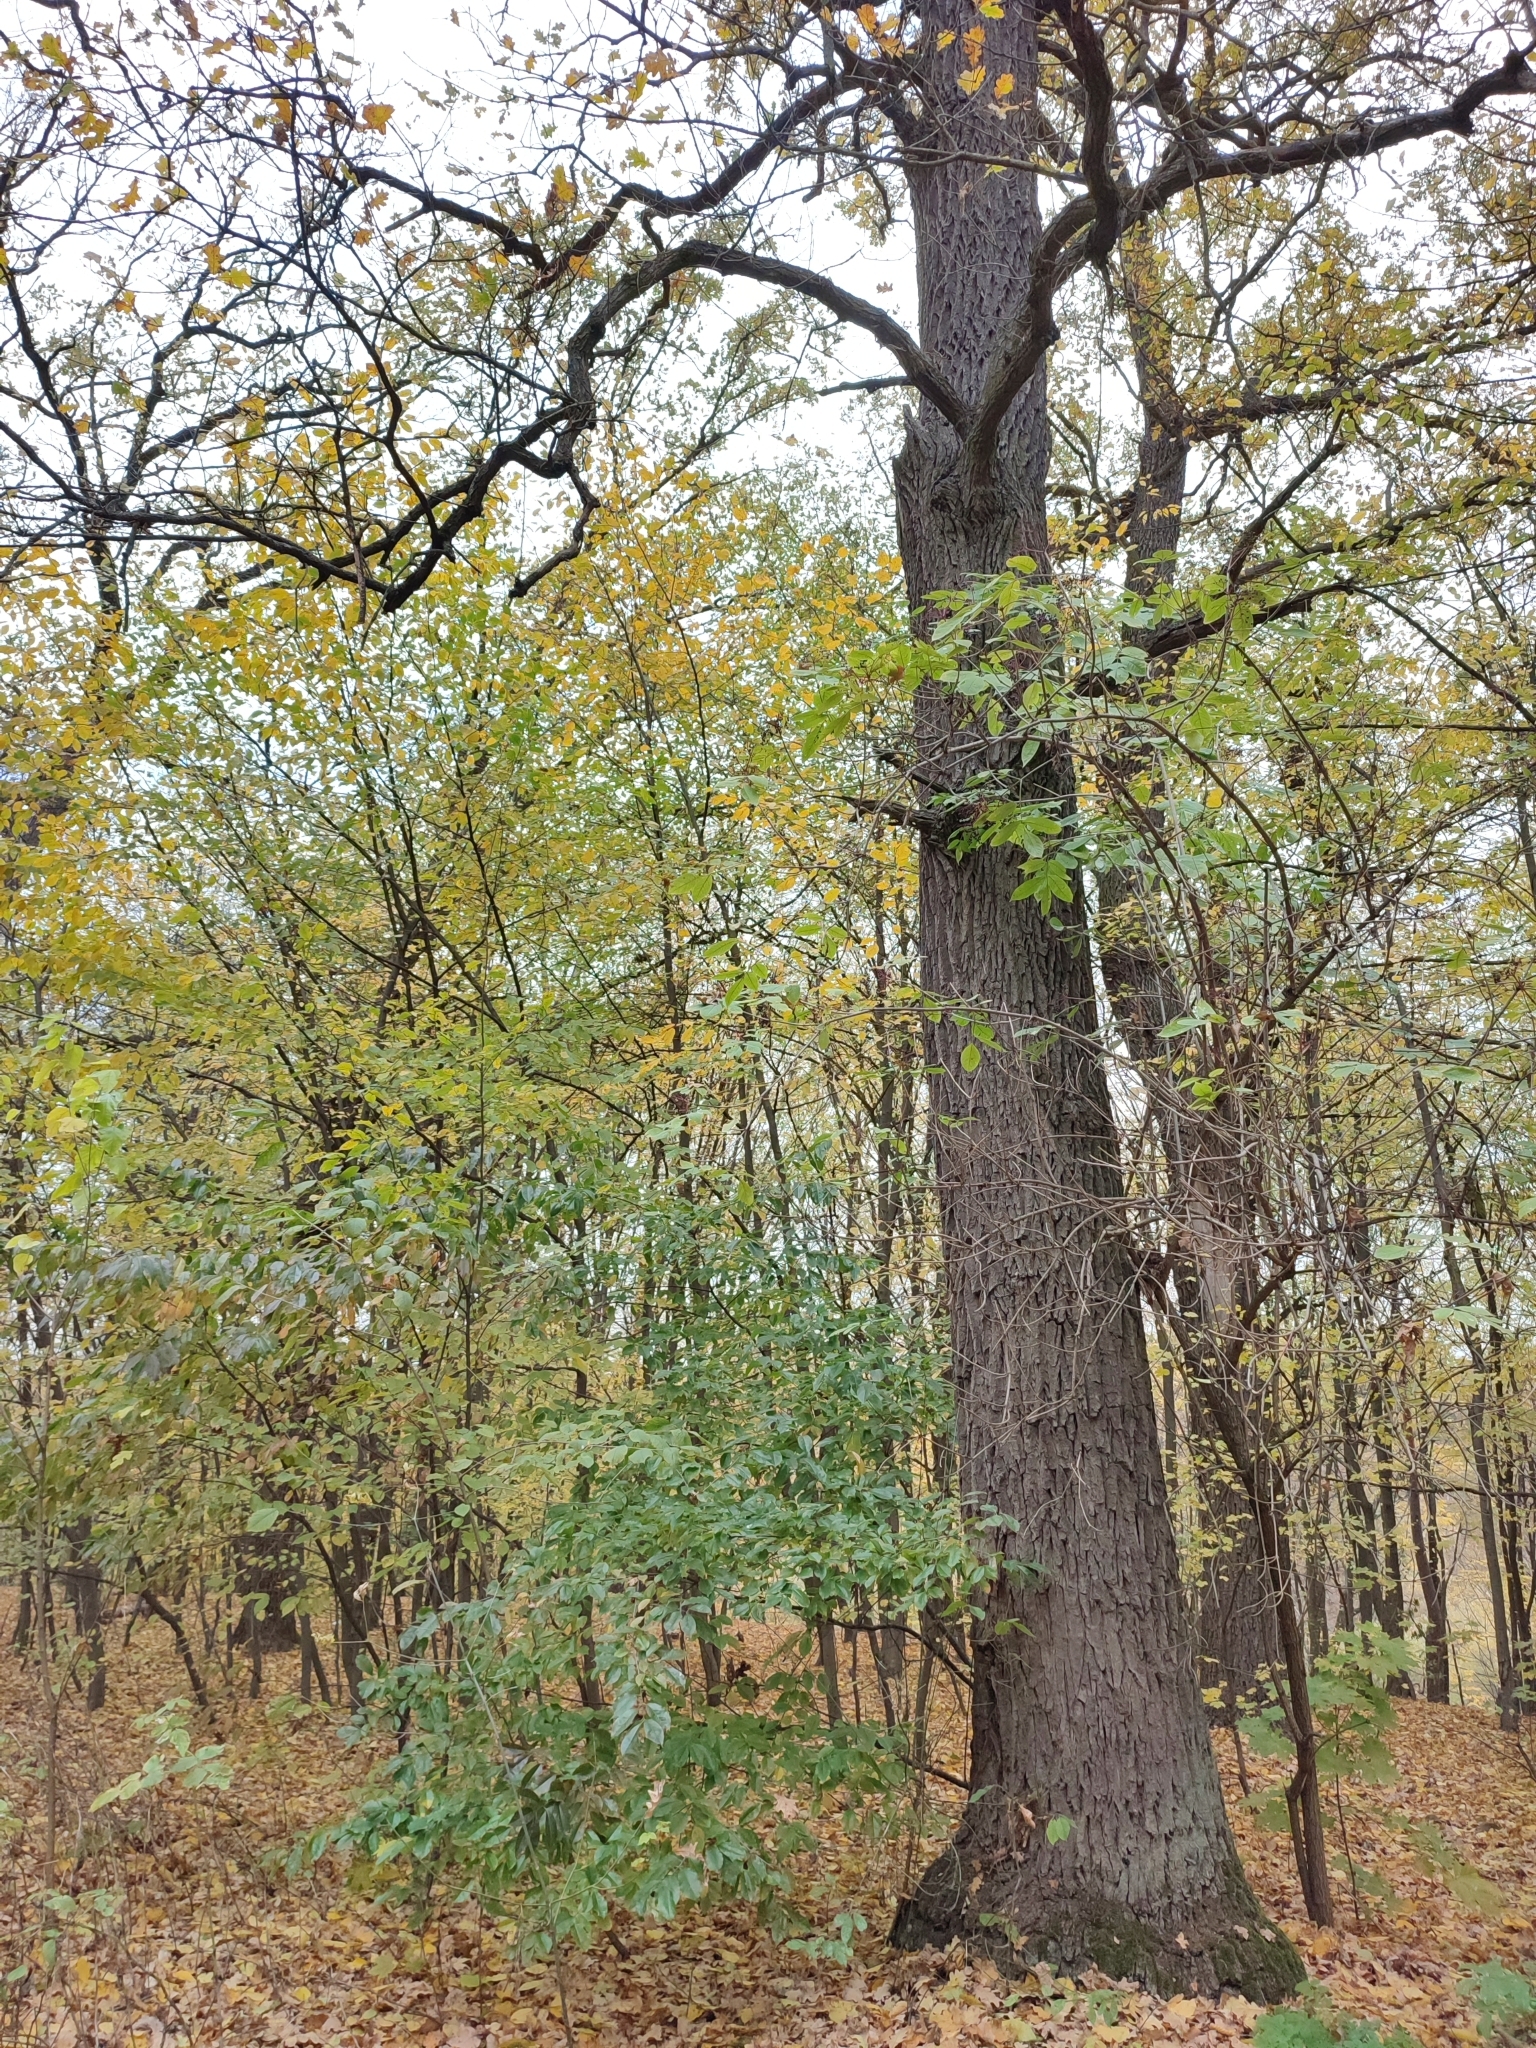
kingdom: Plantae
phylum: Tracheophyta
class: Magnoliopsida
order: Fagales
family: Fagaceae
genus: Quercus
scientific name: Quercus robur
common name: Pedunculate oak
